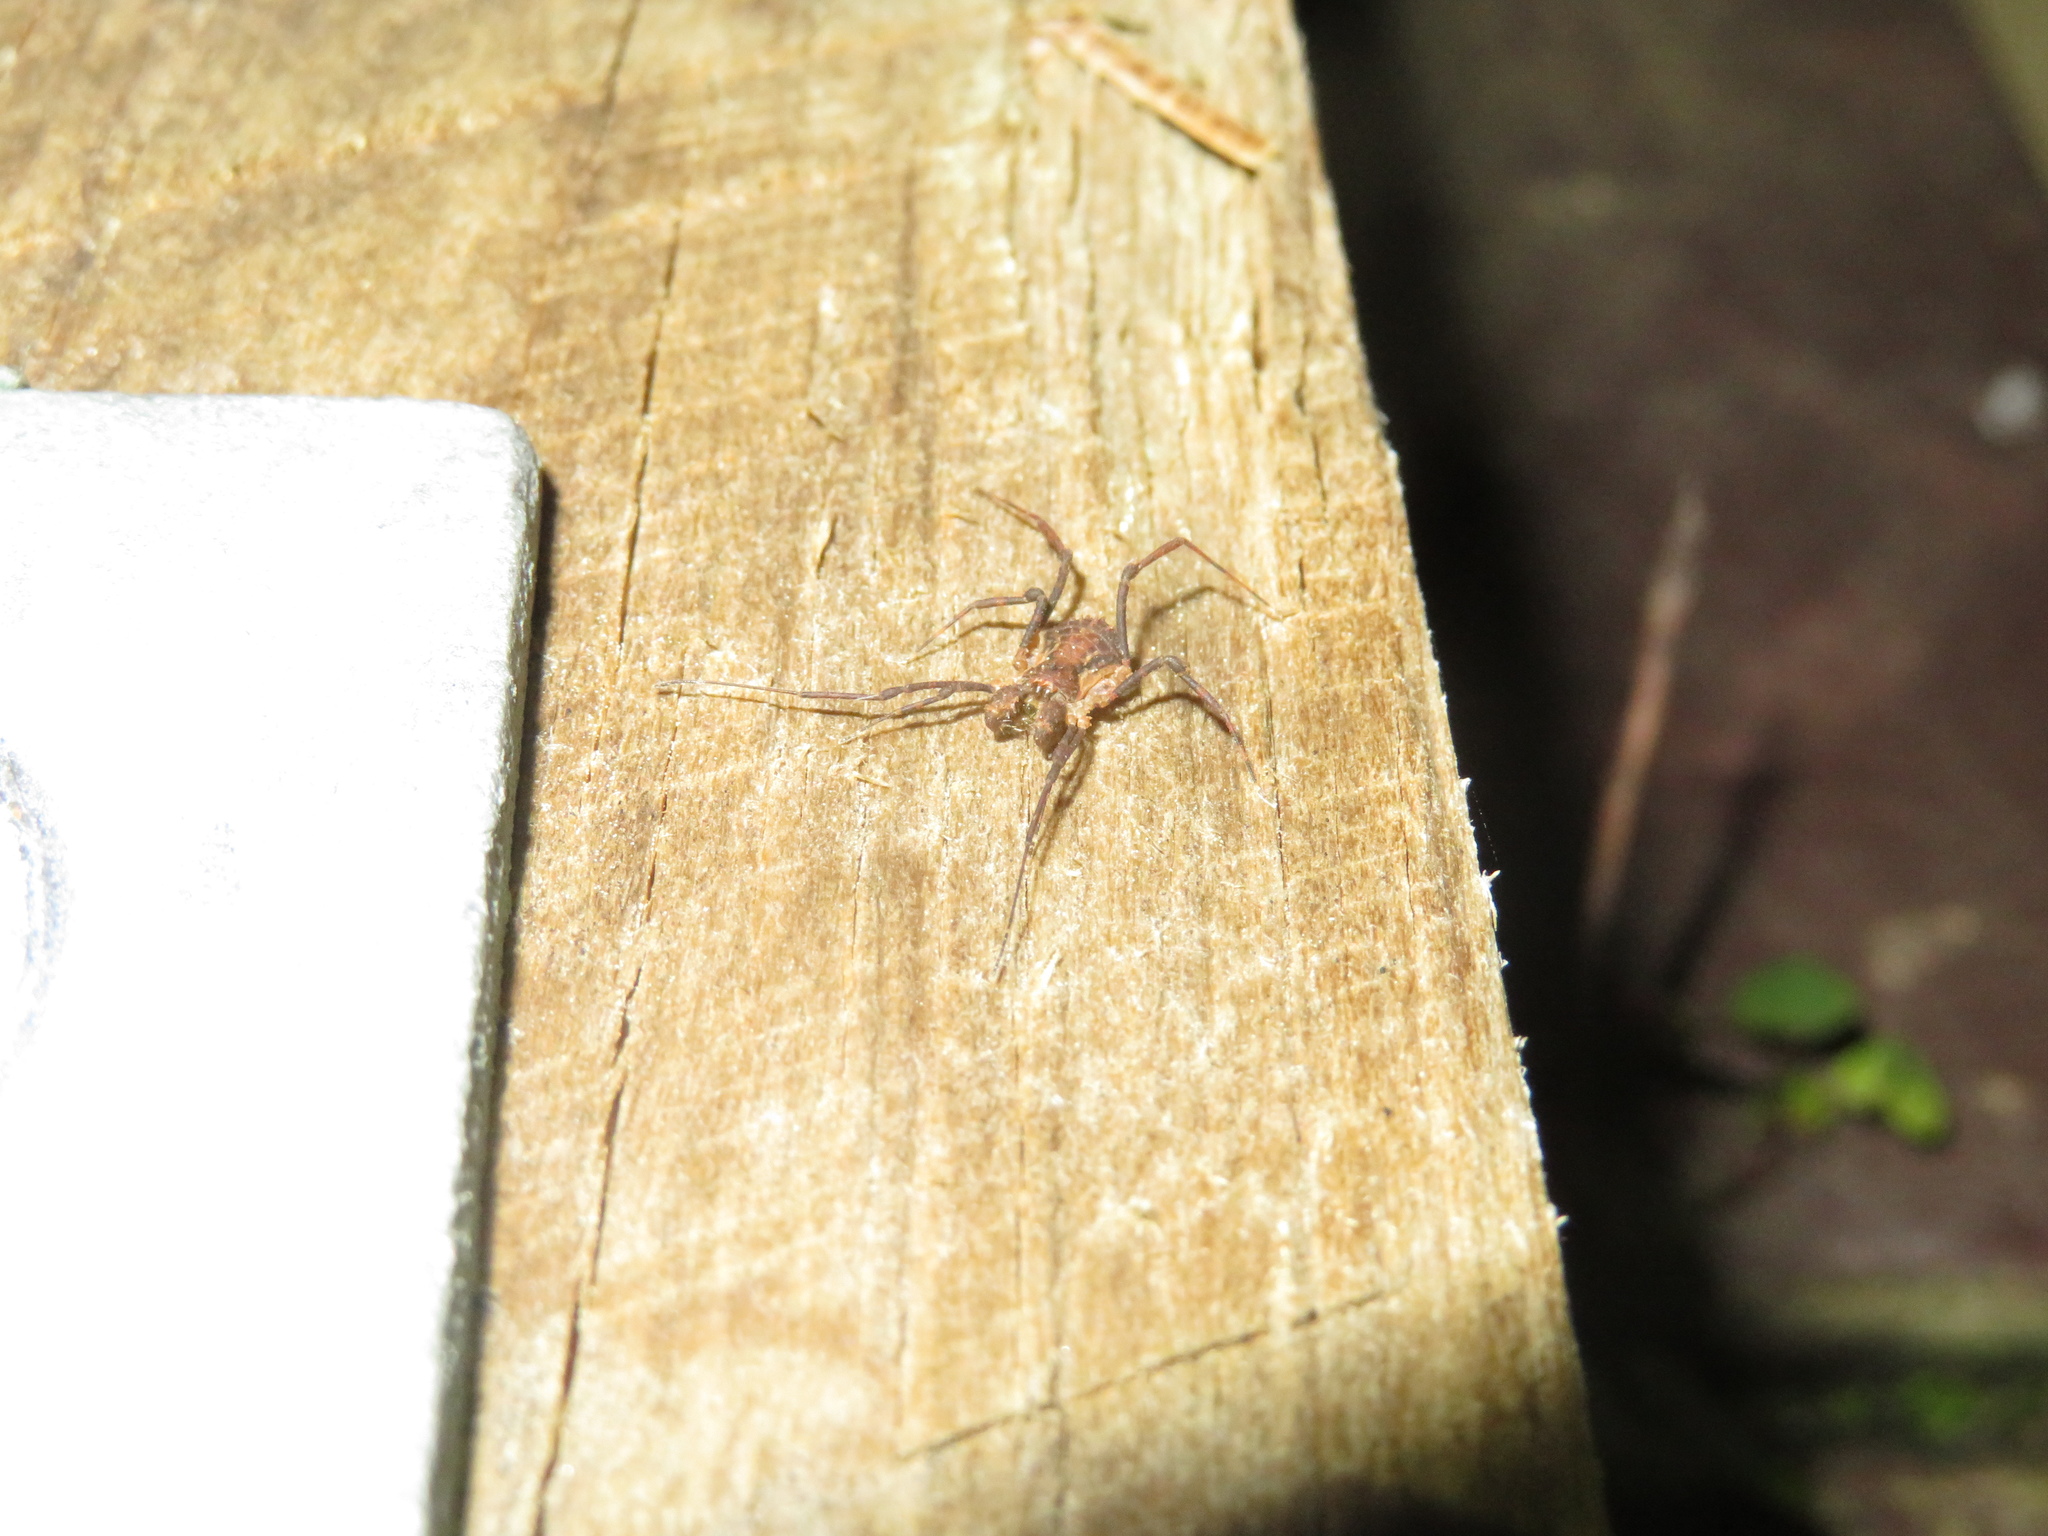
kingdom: Animalia
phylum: Arthropoda
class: Arachnida
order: Opiliones
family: Triaenonychidae
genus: Algidia
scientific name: Algidia chiltoni
